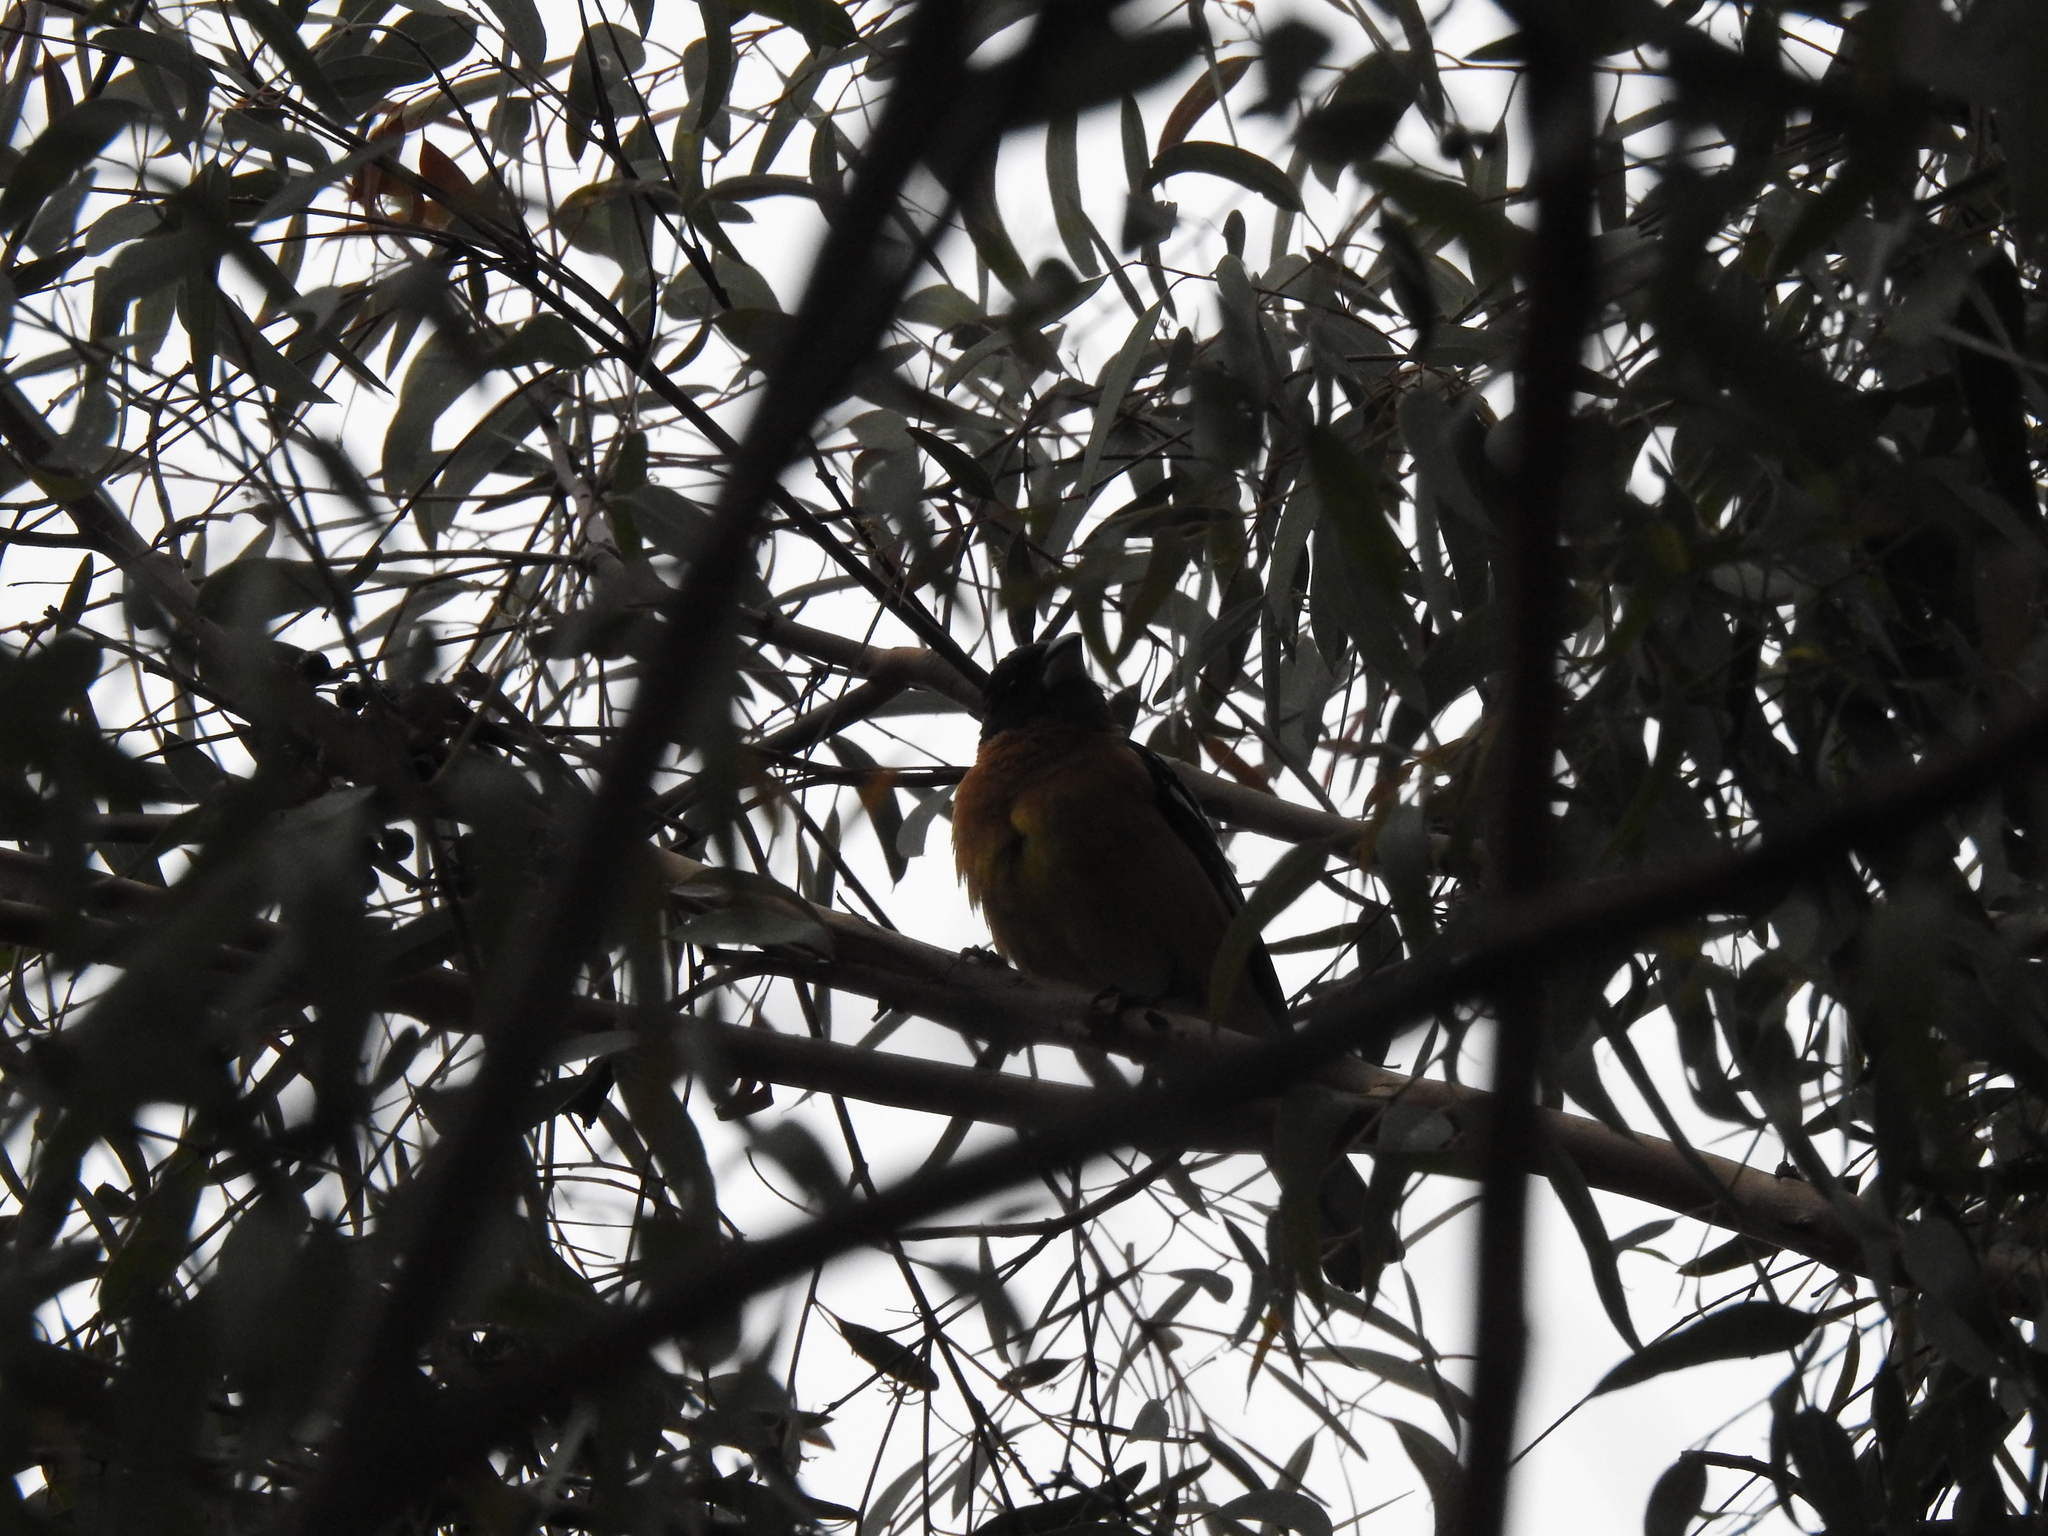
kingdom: Animalia
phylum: Chordata
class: Aves
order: Passeriformes
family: Cardinalidae
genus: Pheucticus
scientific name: Pheucticus melanocephalus
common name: Black-headed grosbeak
